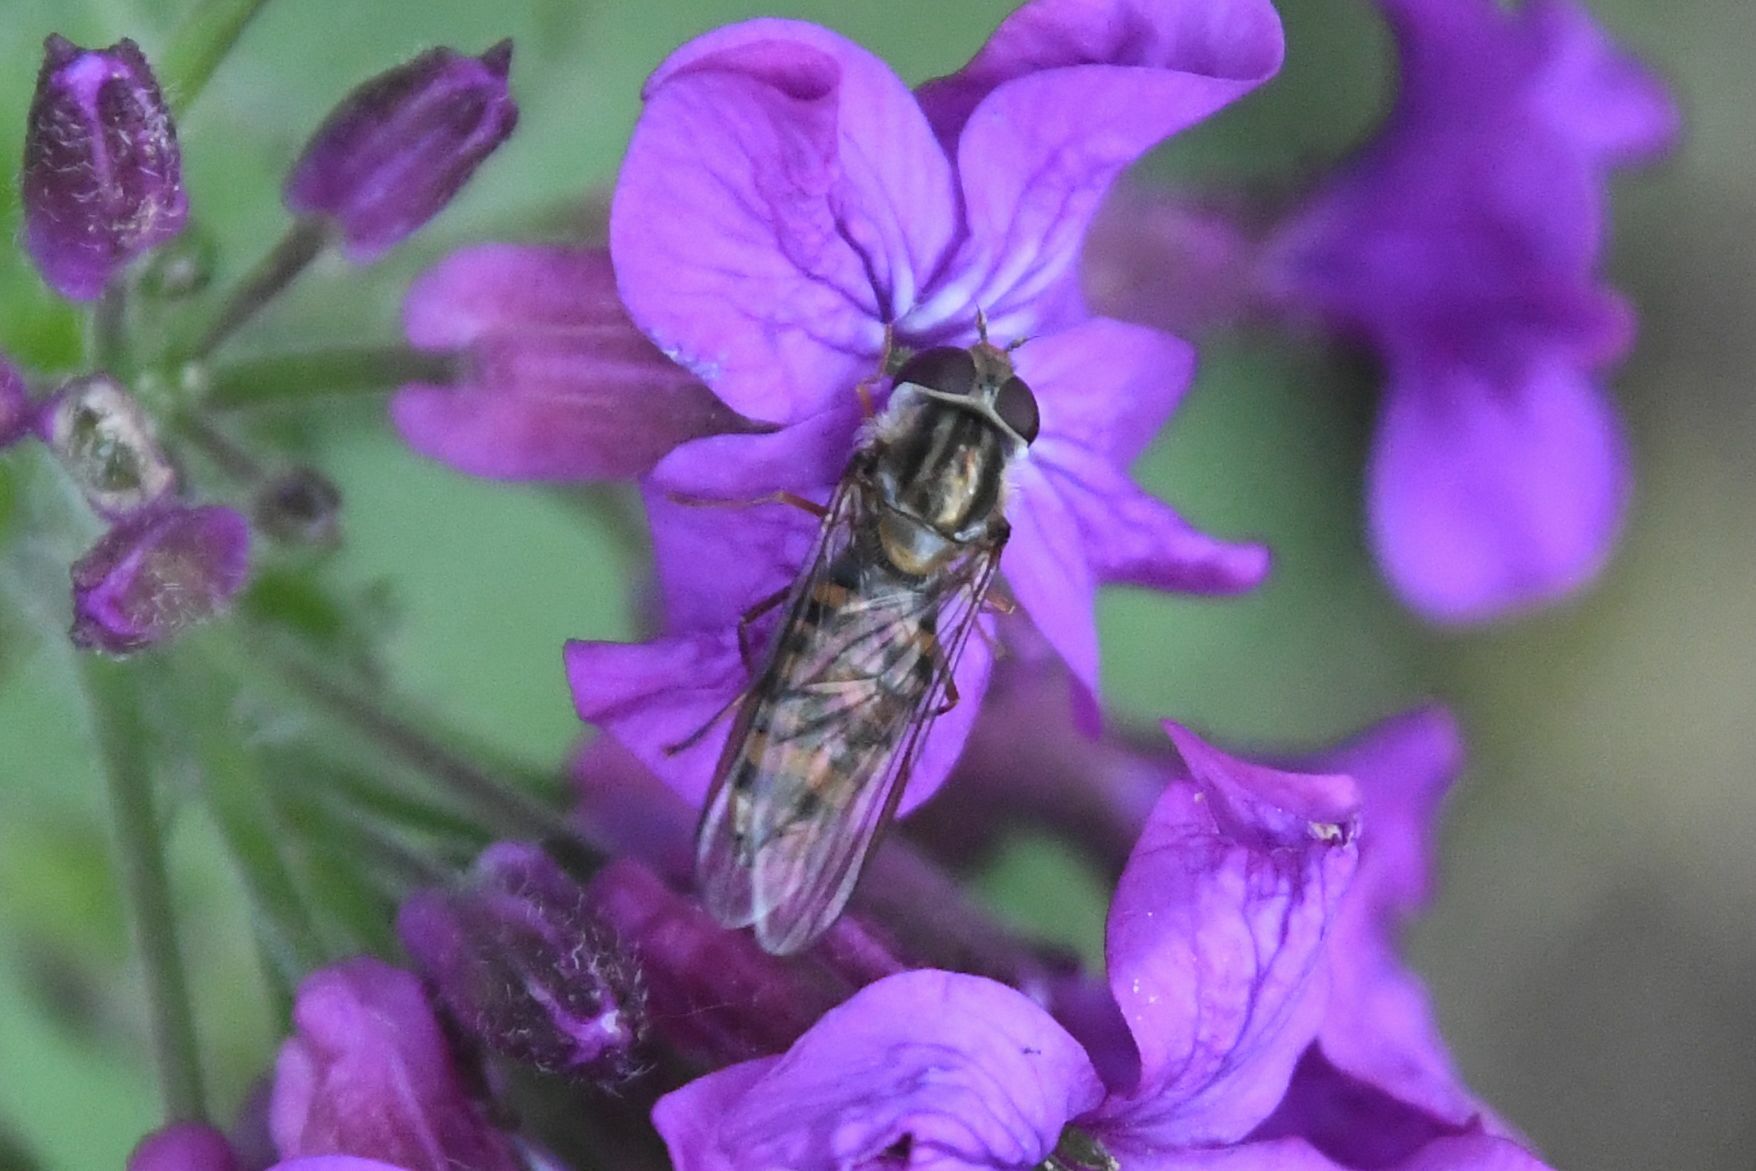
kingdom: Animalia
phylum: Arthropoda
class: Insecta
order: Diptera
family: Syrphidae
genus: Episyrphus
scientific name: Episyrphus balteatus
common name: Marmalade hoverfly
